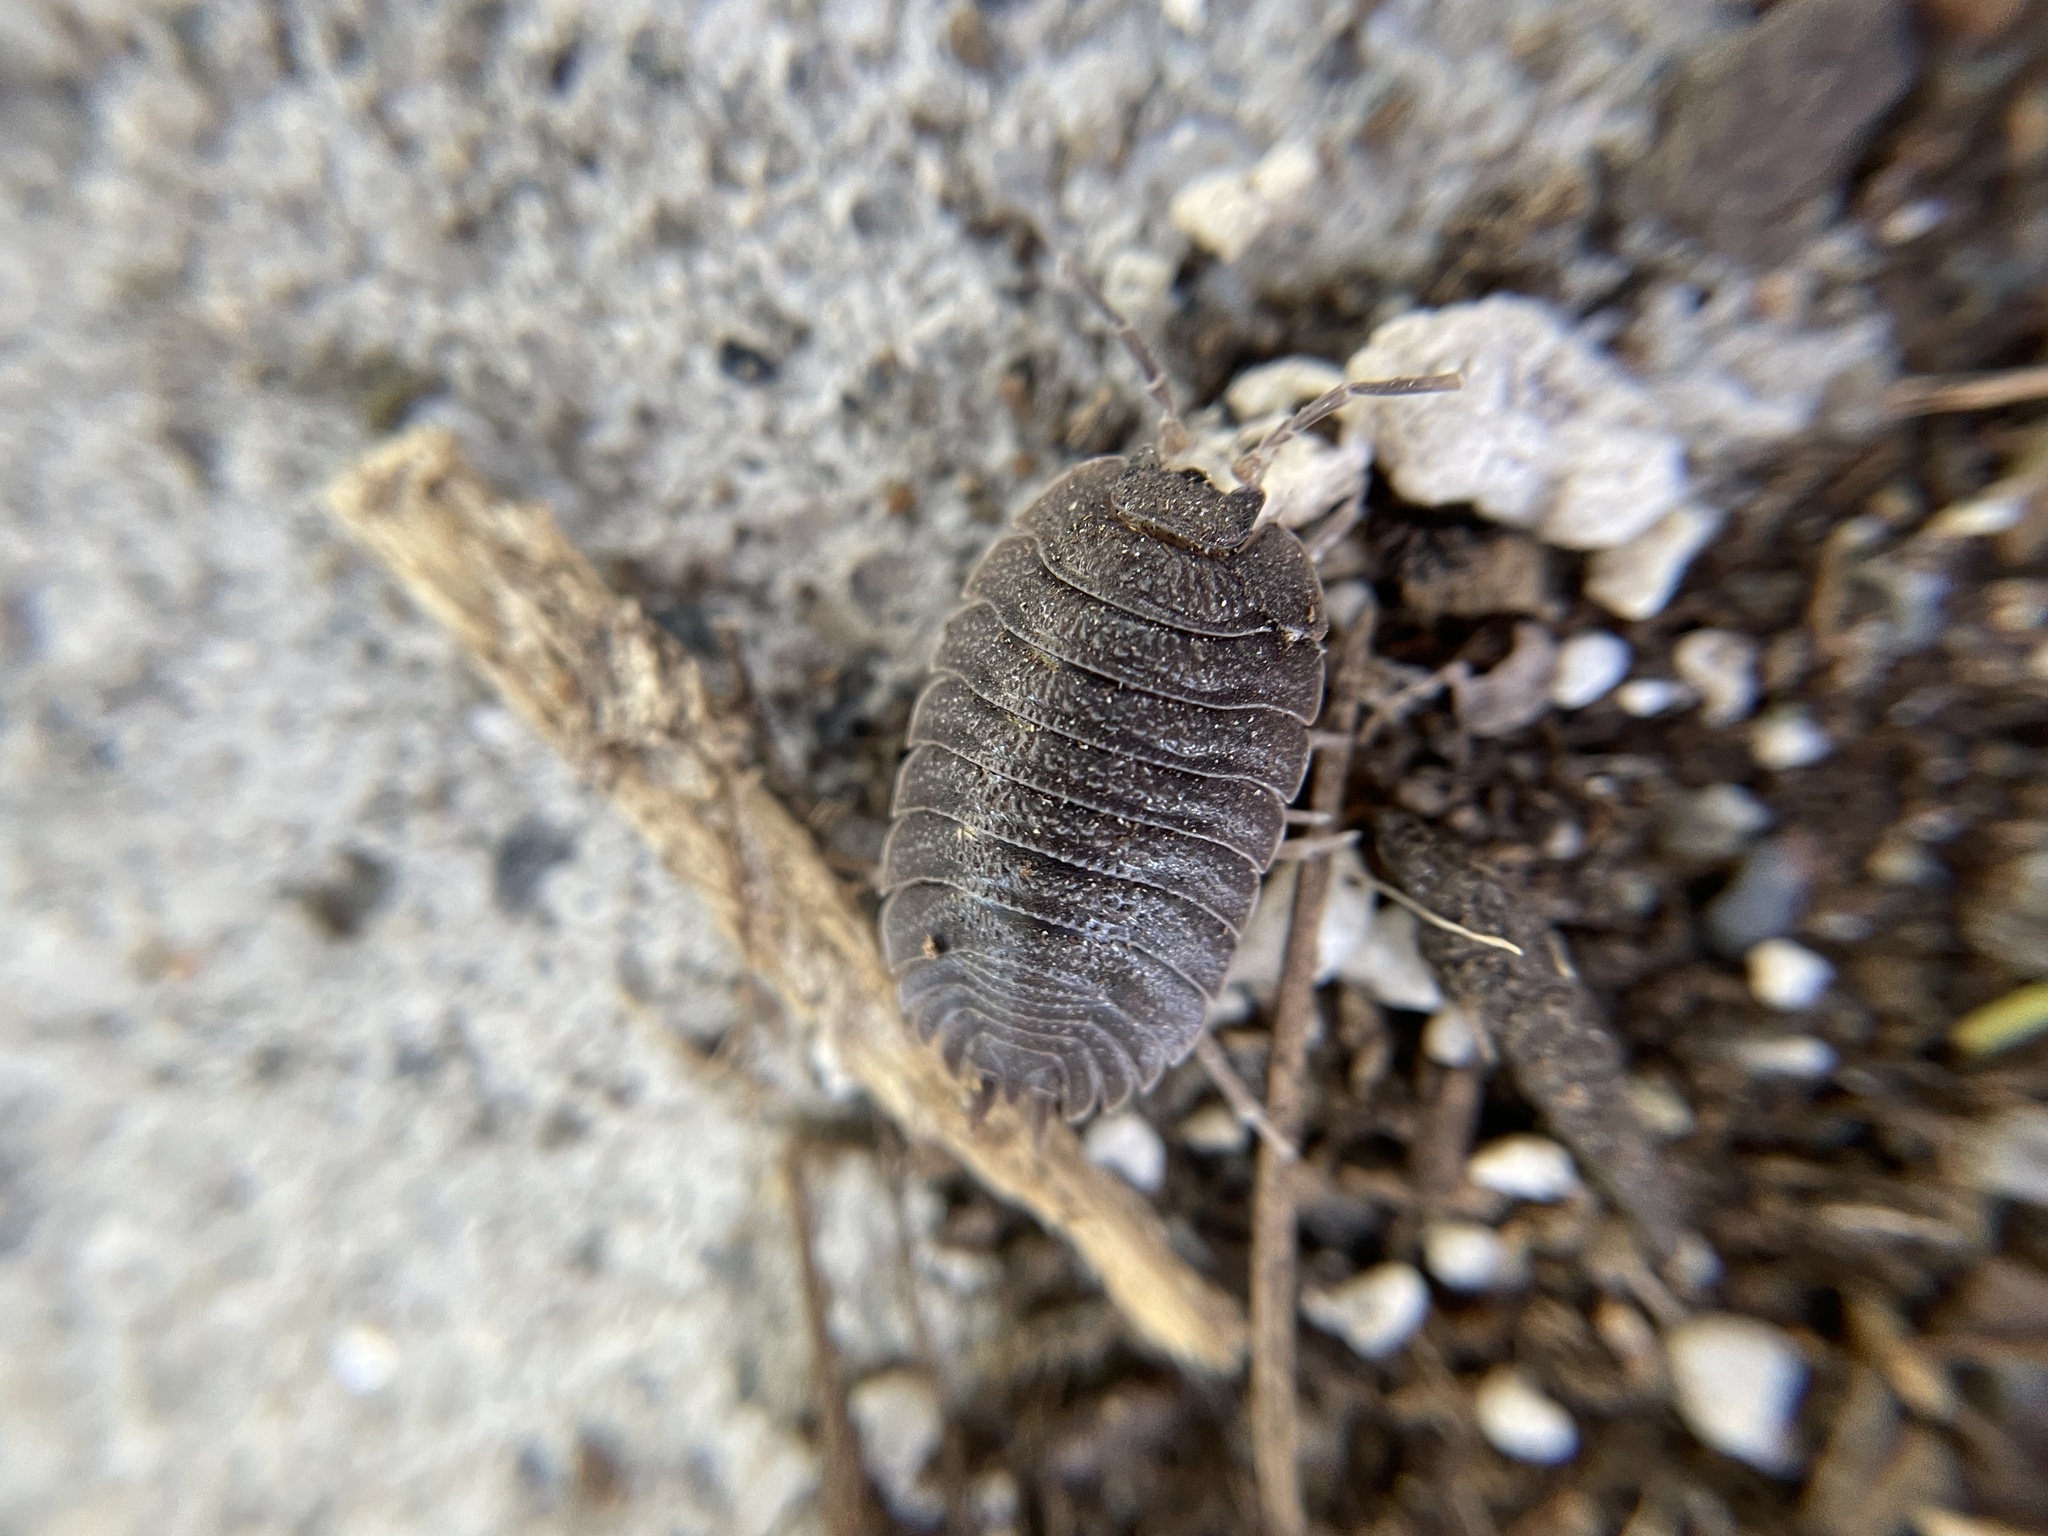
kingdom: Animalia
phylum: Arthropoda
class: Malacostraca
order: Isopoda
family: Porcellionidae
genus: Porcellio
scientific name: Porcellio dilatatus
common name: Isopod
